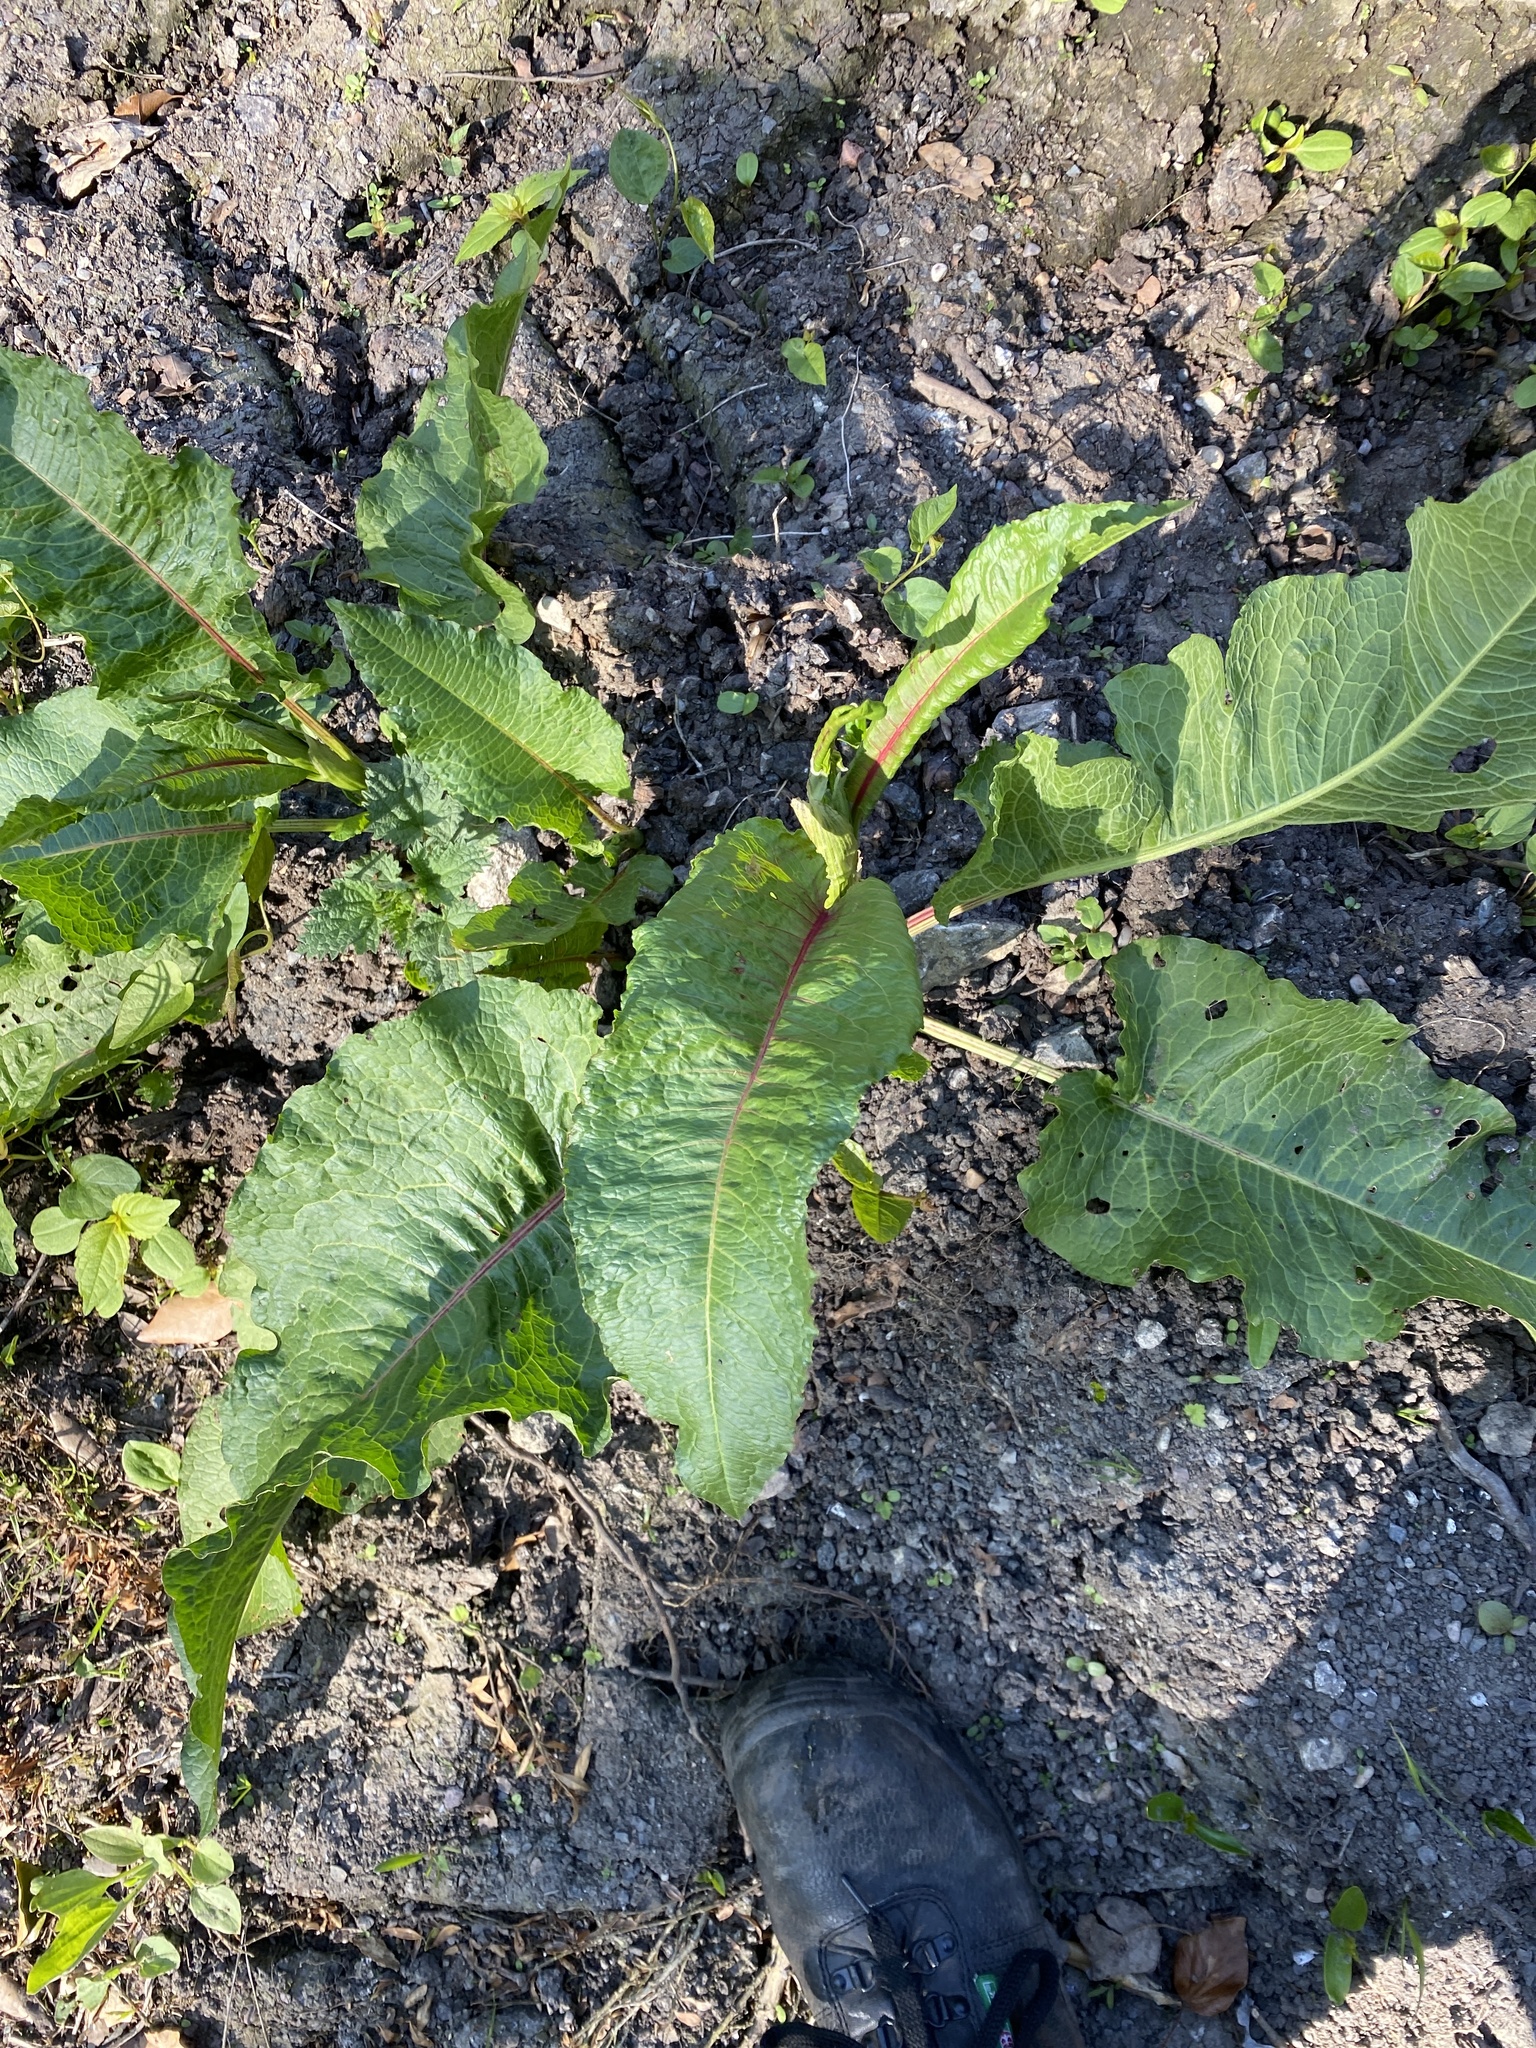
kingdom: Plantae
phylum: Tracheophyta
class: Magnoliopsida
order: Caryophyllales
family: Polygonaceae
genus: Rumex
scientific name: Rumex obtusifolius
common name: Bitter dock
